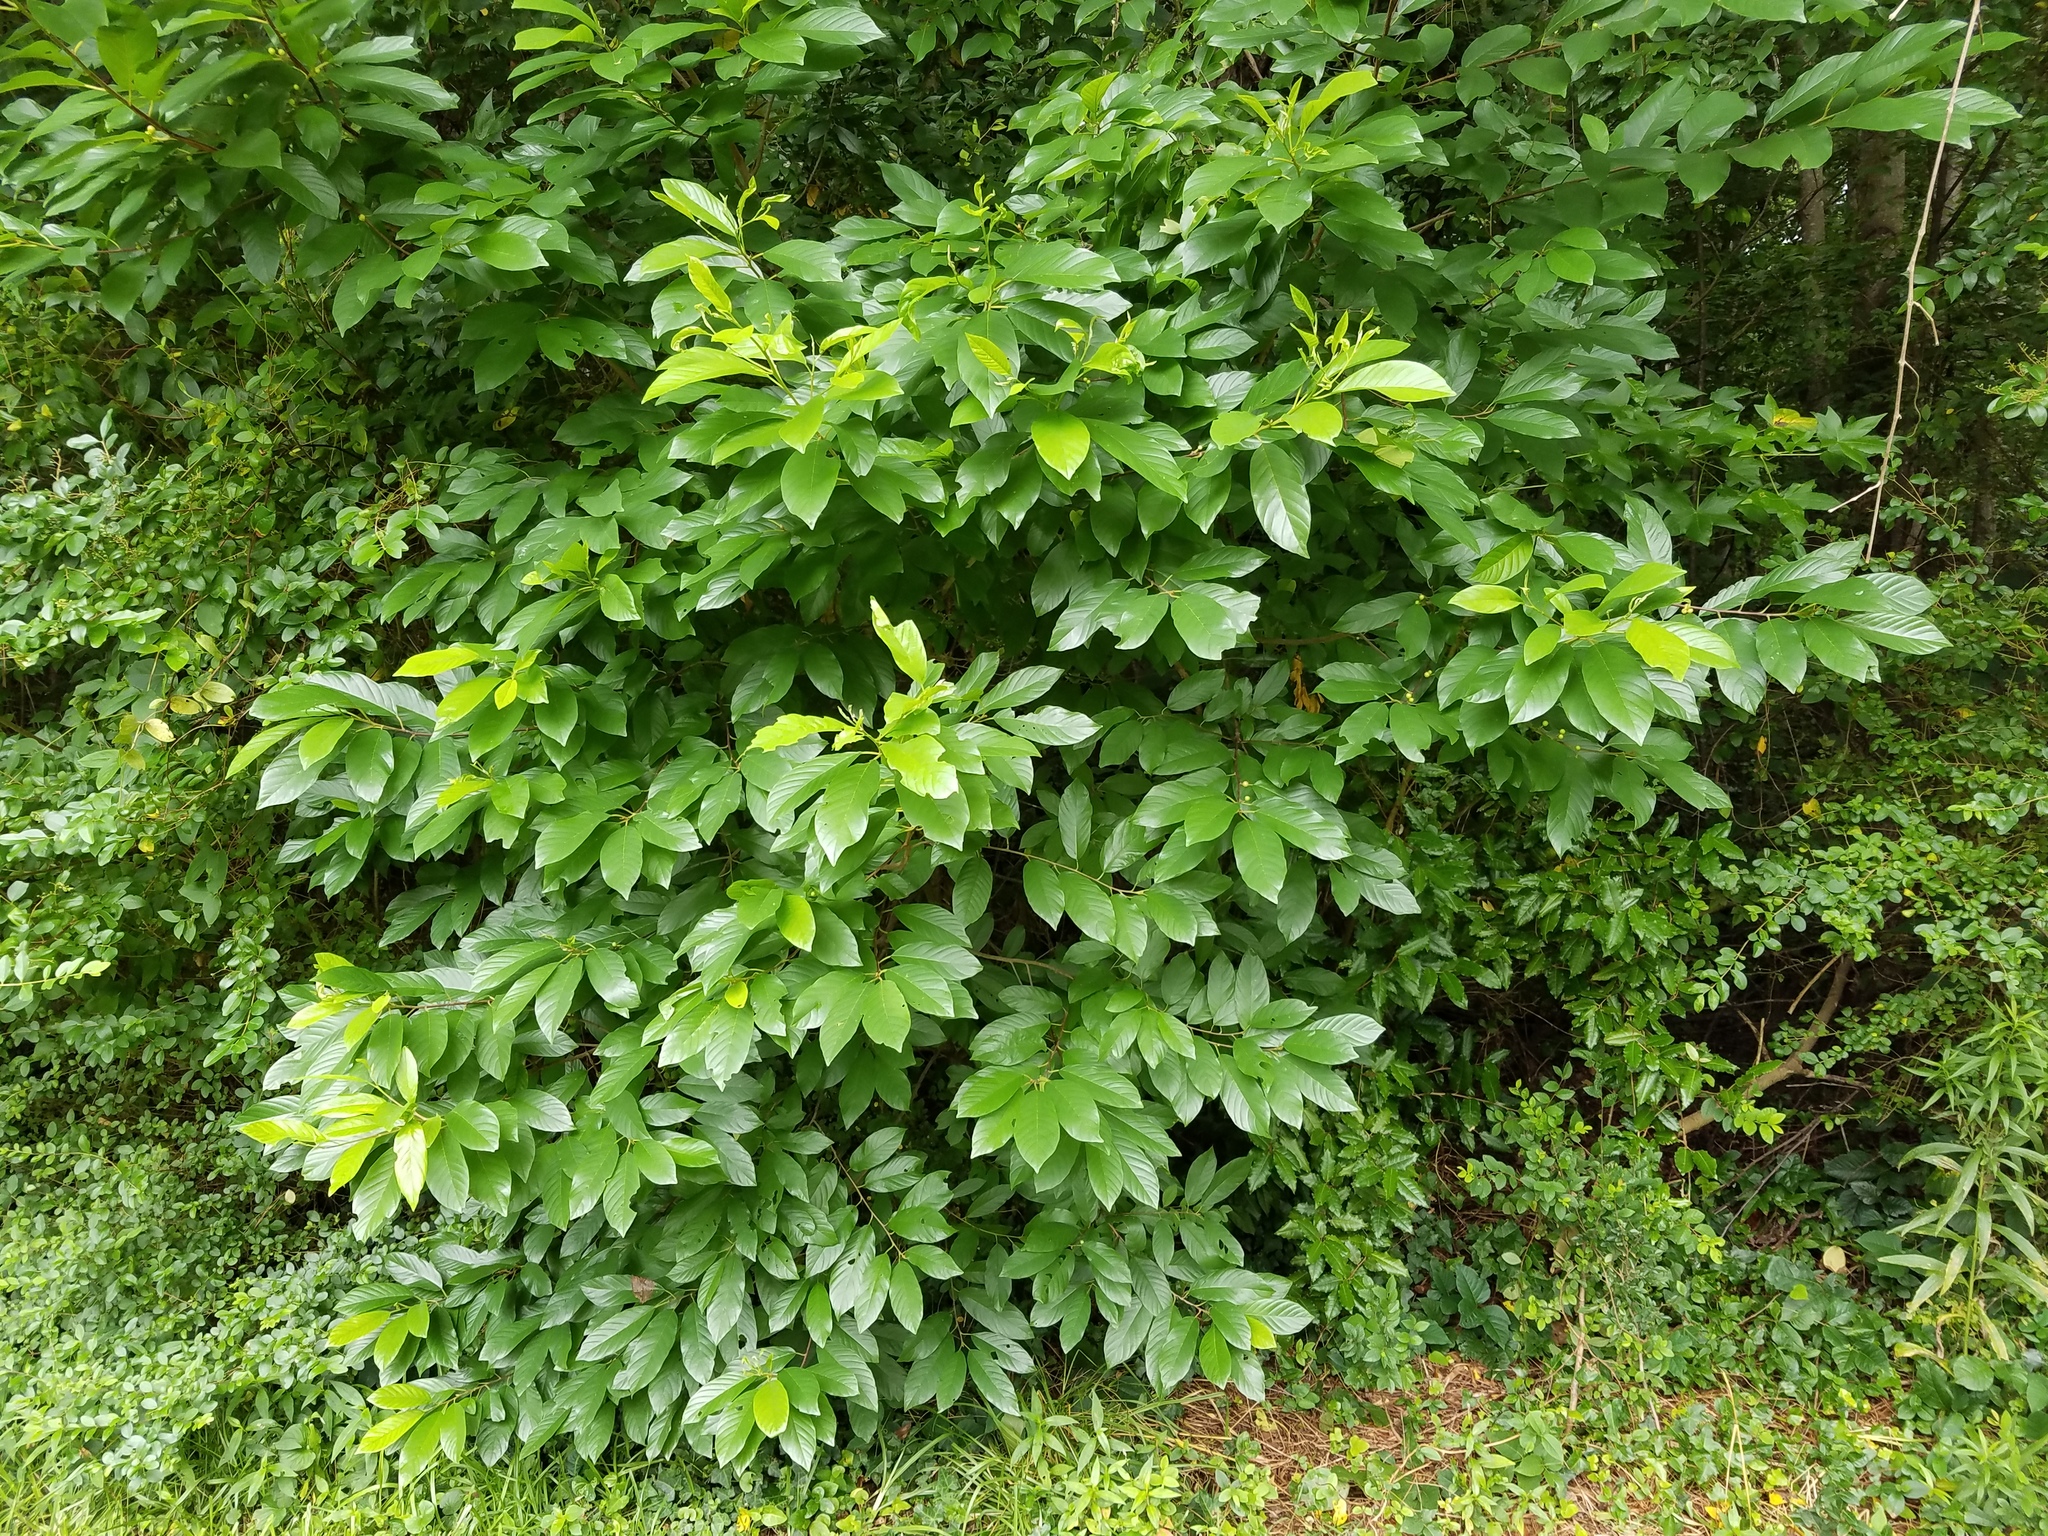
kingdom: Plantae
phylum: Tracheophyta
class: Magnoliopsida
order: Rosales
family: Rhamnaceae
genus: Frangula
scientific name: Frangula caroliniana
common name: Carolina buckthorn
